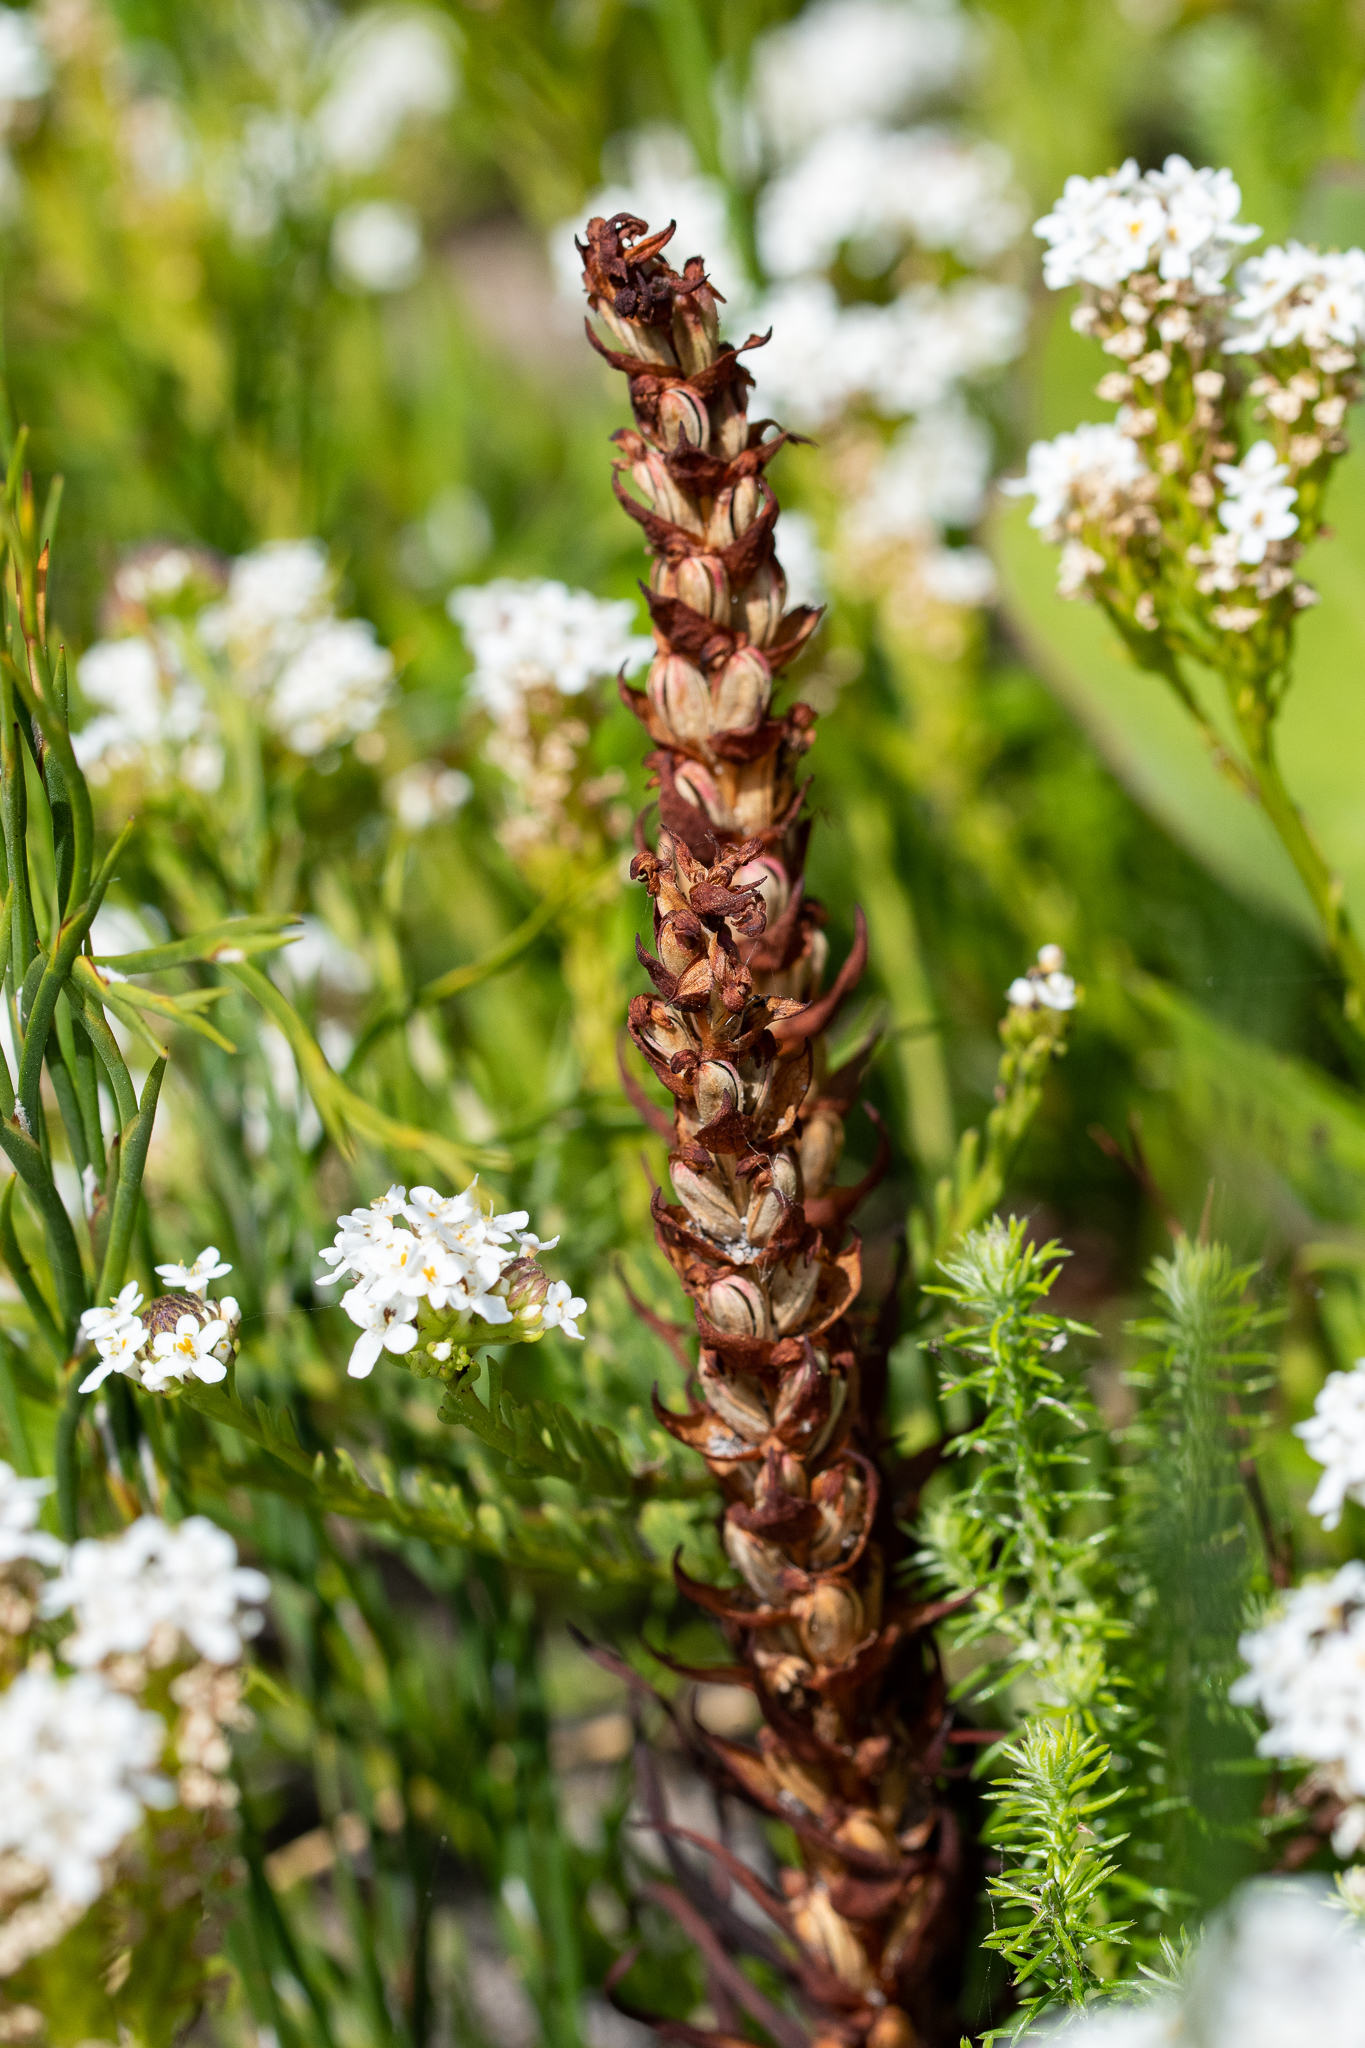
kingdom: Plantae
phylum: Tracheophyta
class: Liliopsida
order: Asparagales
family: Orchidaceae
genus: Disa
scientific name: Disa bracteata
